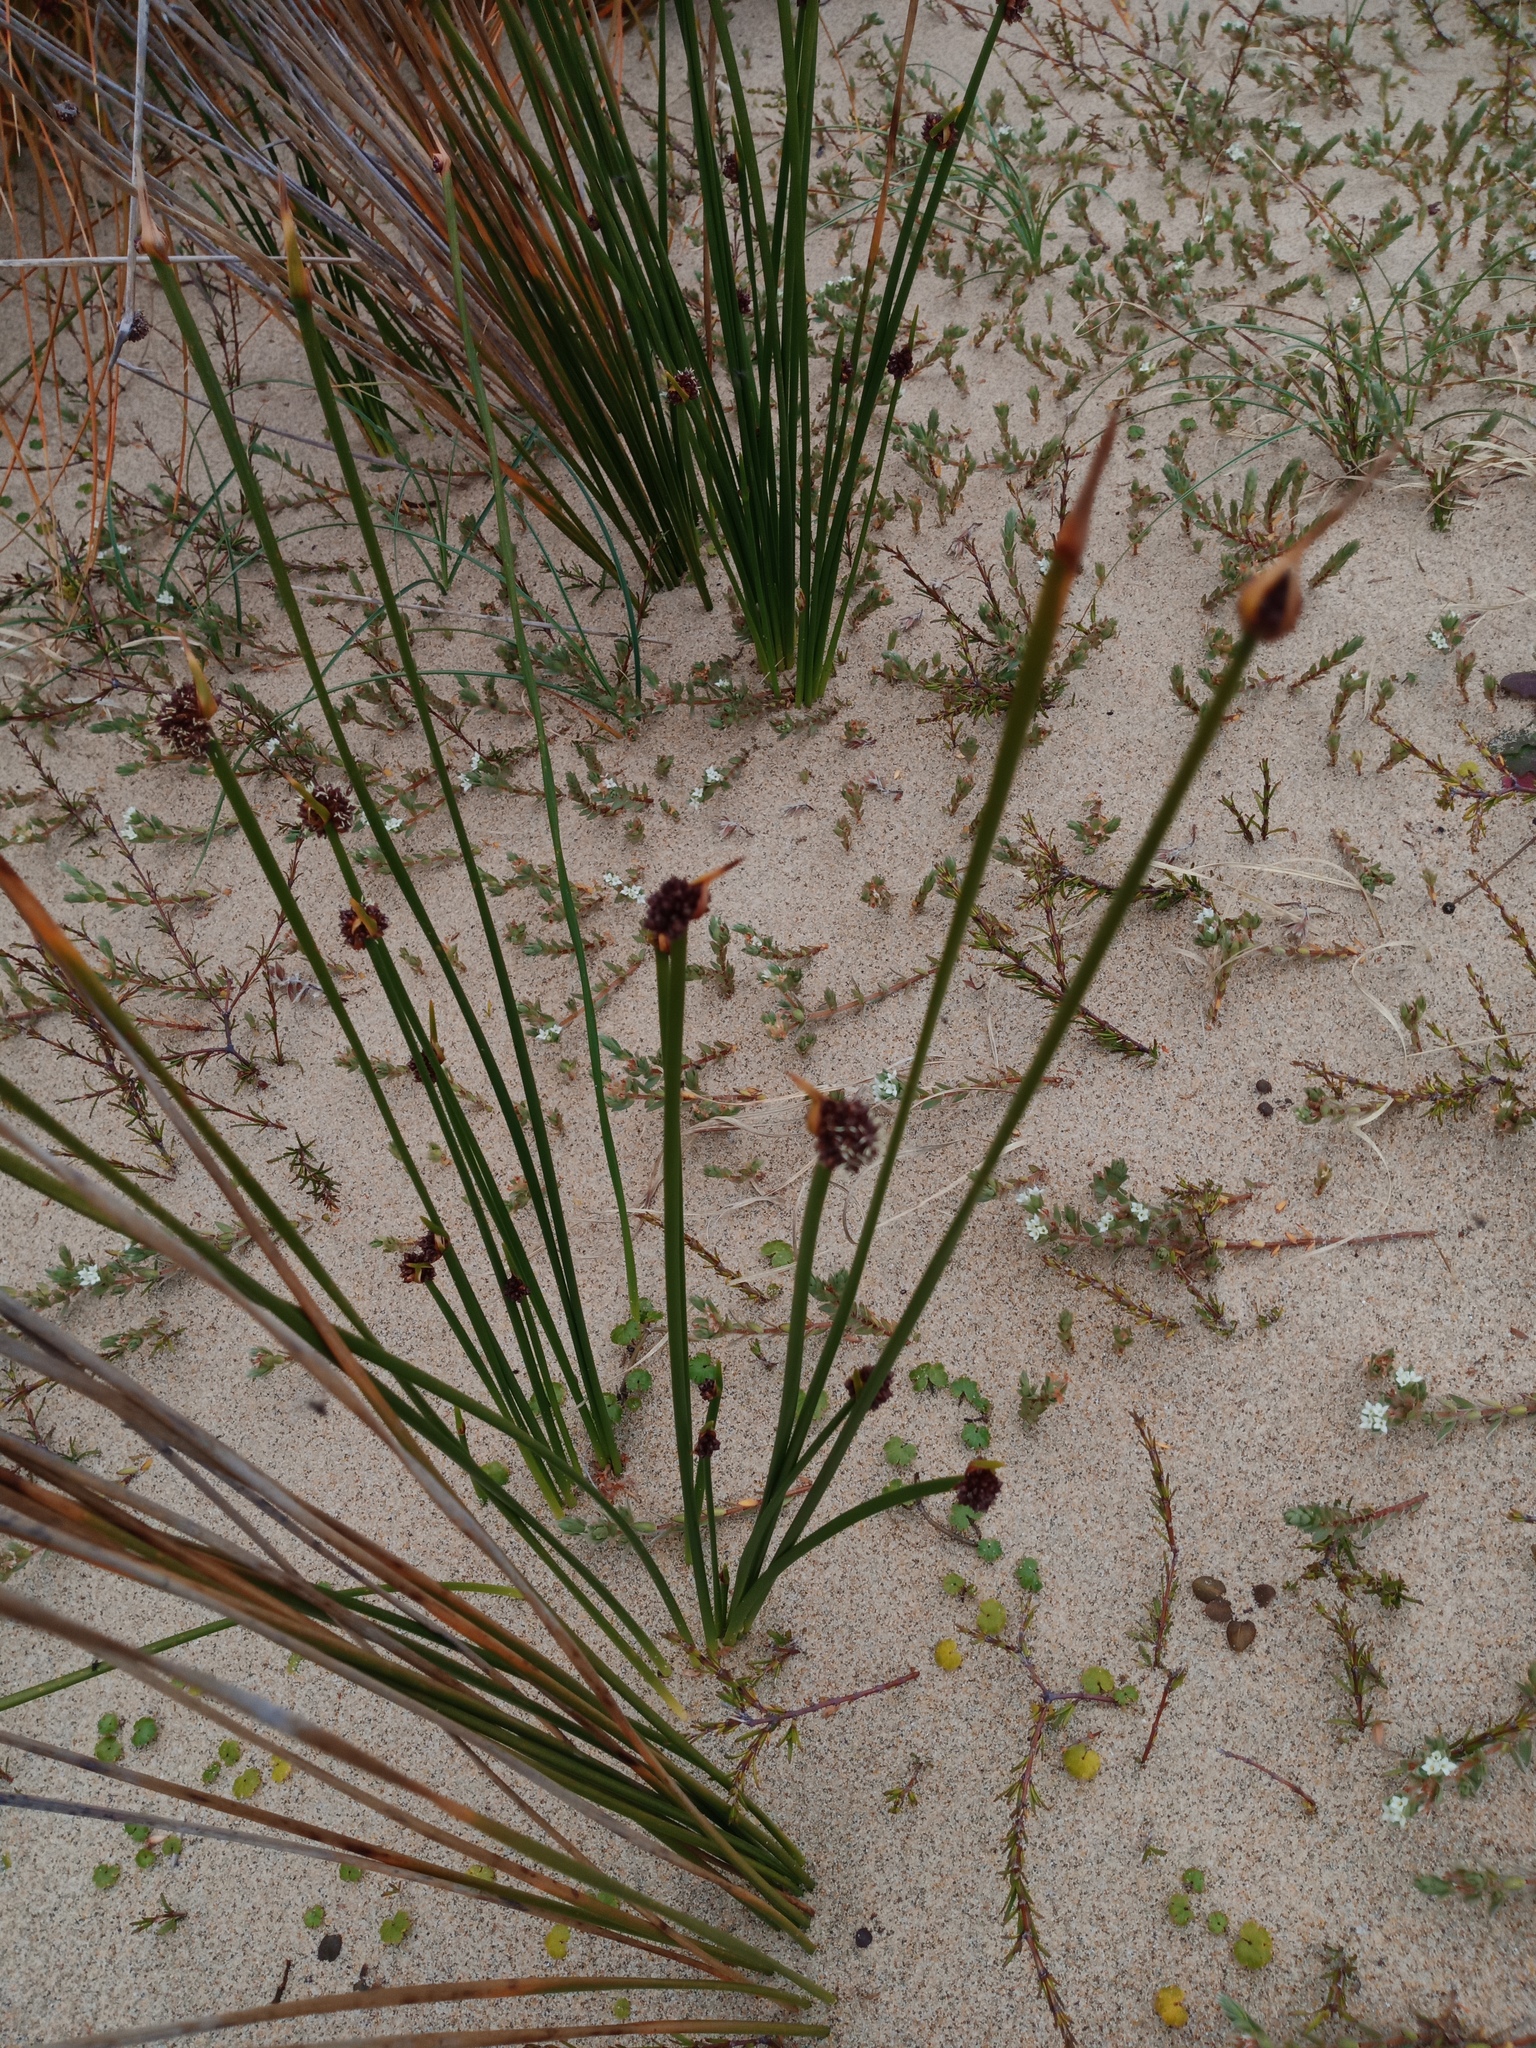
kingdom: Plantae
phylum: Tracheophyta
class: Liliopsida
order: Poales
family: Cyperaceae
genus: Ficinia
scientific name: Ficinia nodosa
